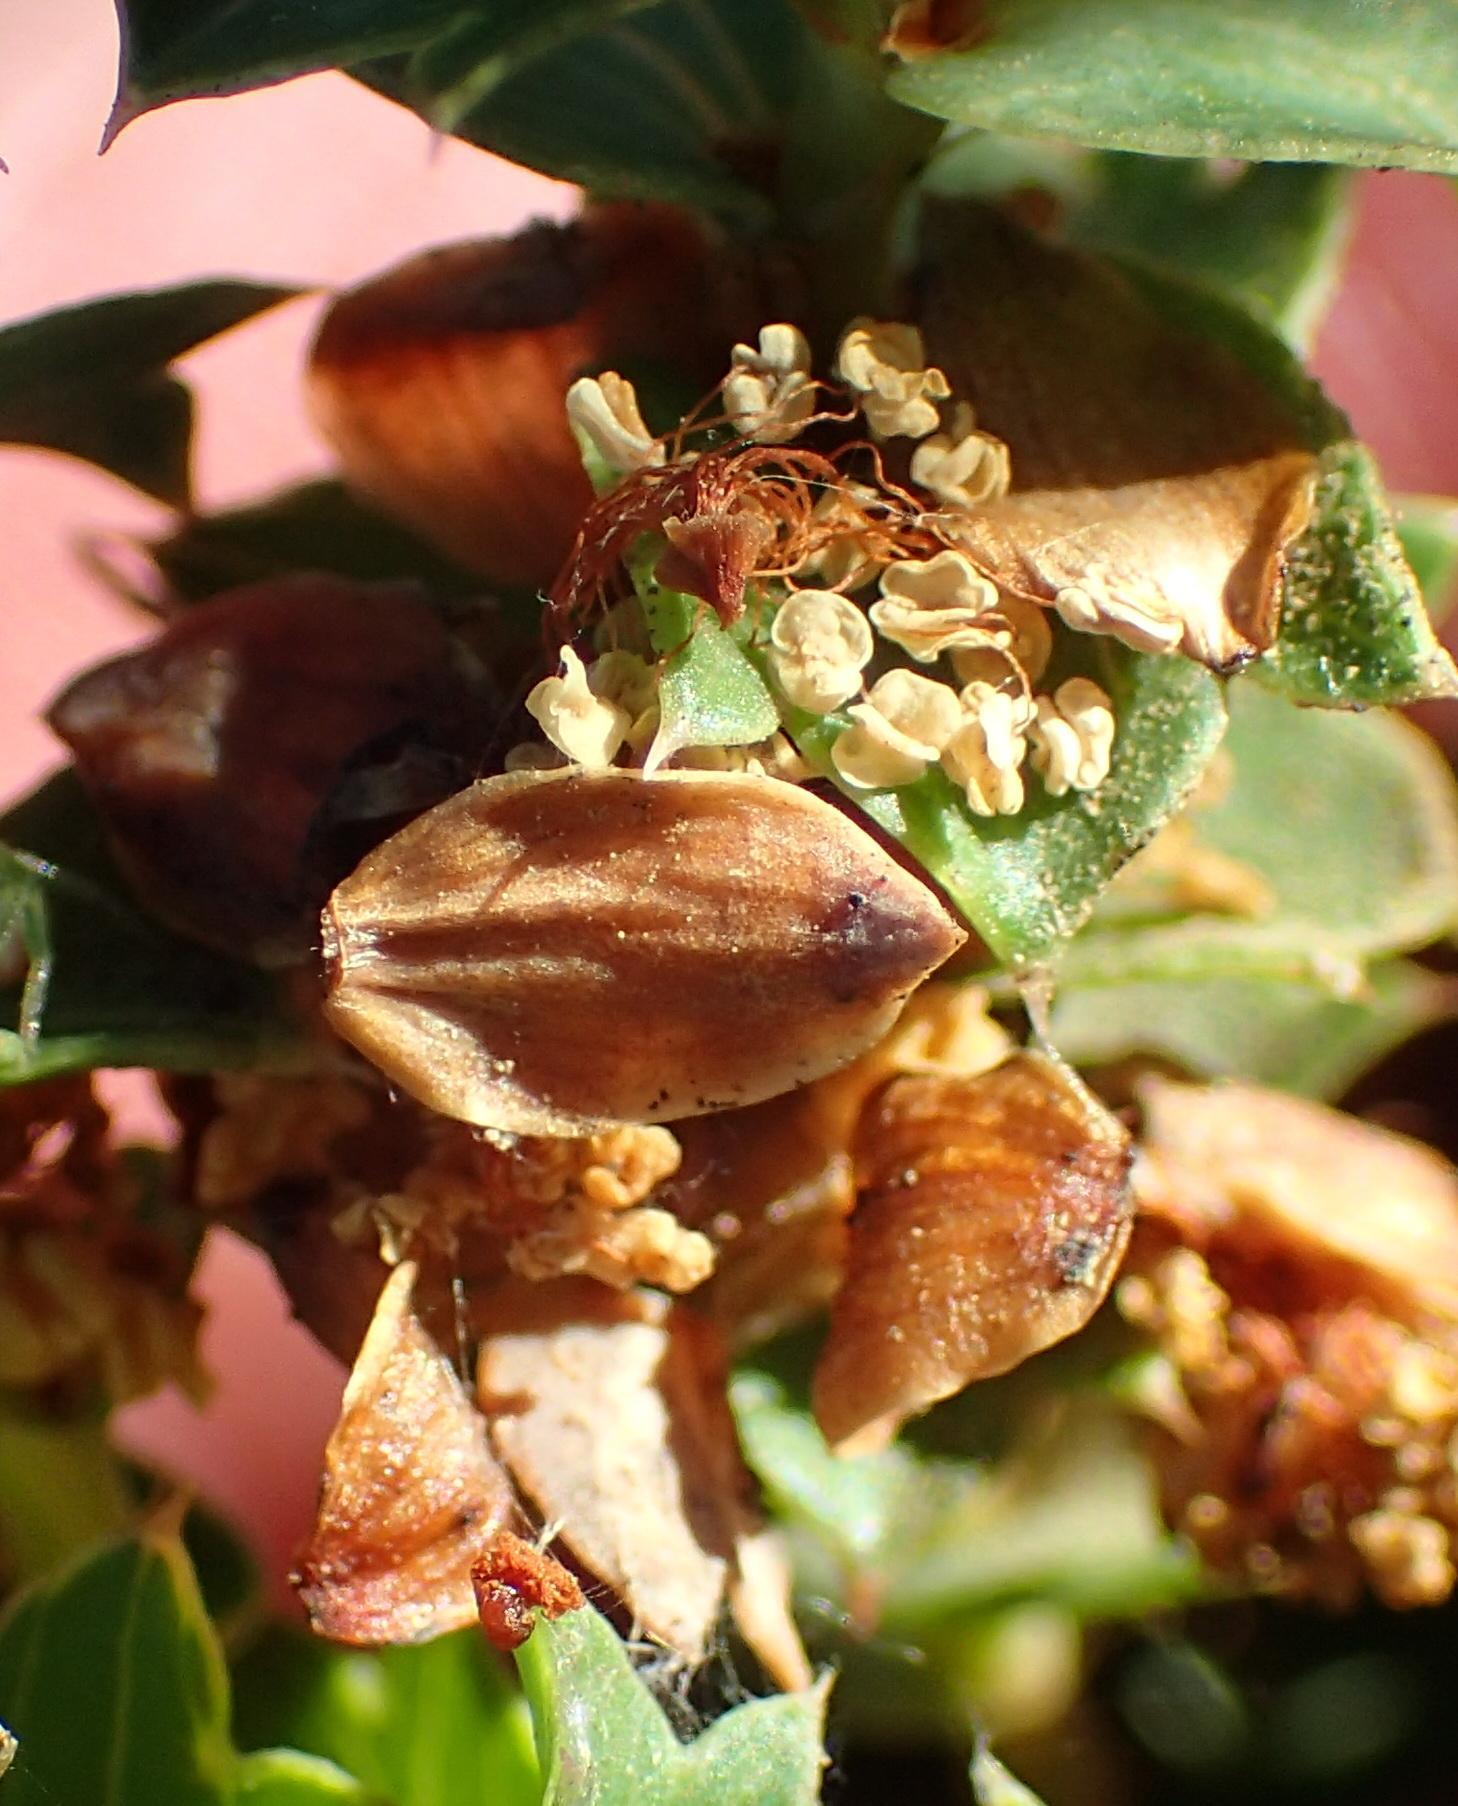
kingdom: Plantae
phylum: Tracheophyta
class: Magnoliopsida
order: Rosales
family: Rosaceae
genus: Cliffortia
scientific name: Cliffortia schlechteri
